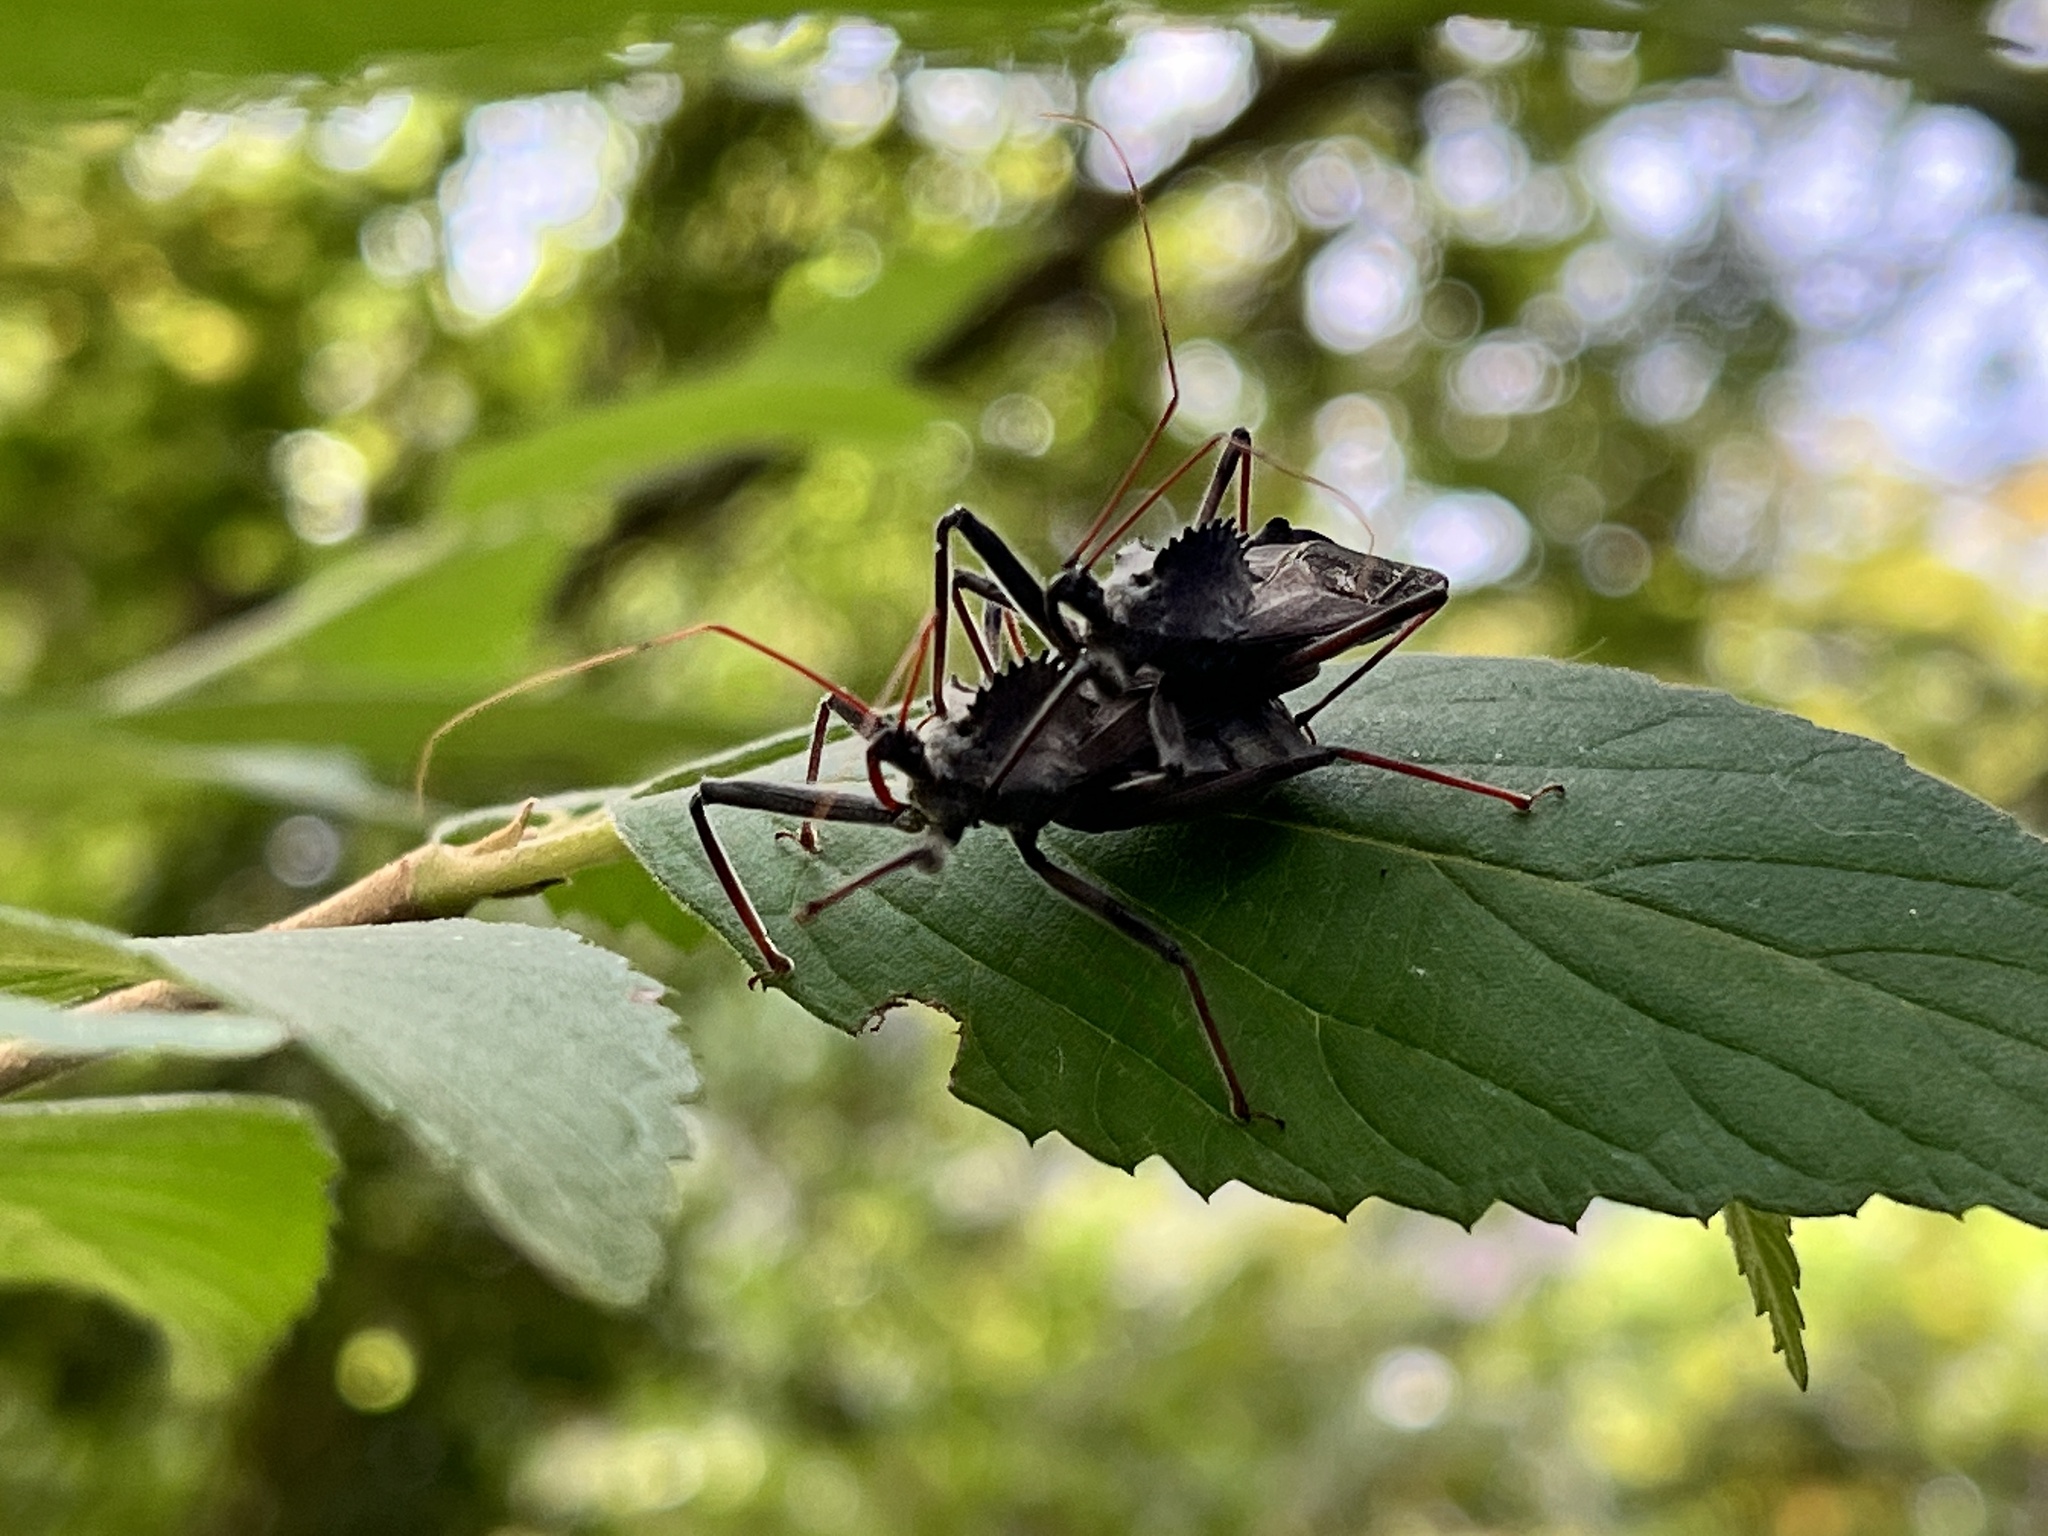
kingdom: Animalia
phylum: Arthropoda
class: Insecta
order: Hemiptera
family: Reduviidae
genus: Arilus
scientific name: Arilus cristatus
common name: North american wheel bug
